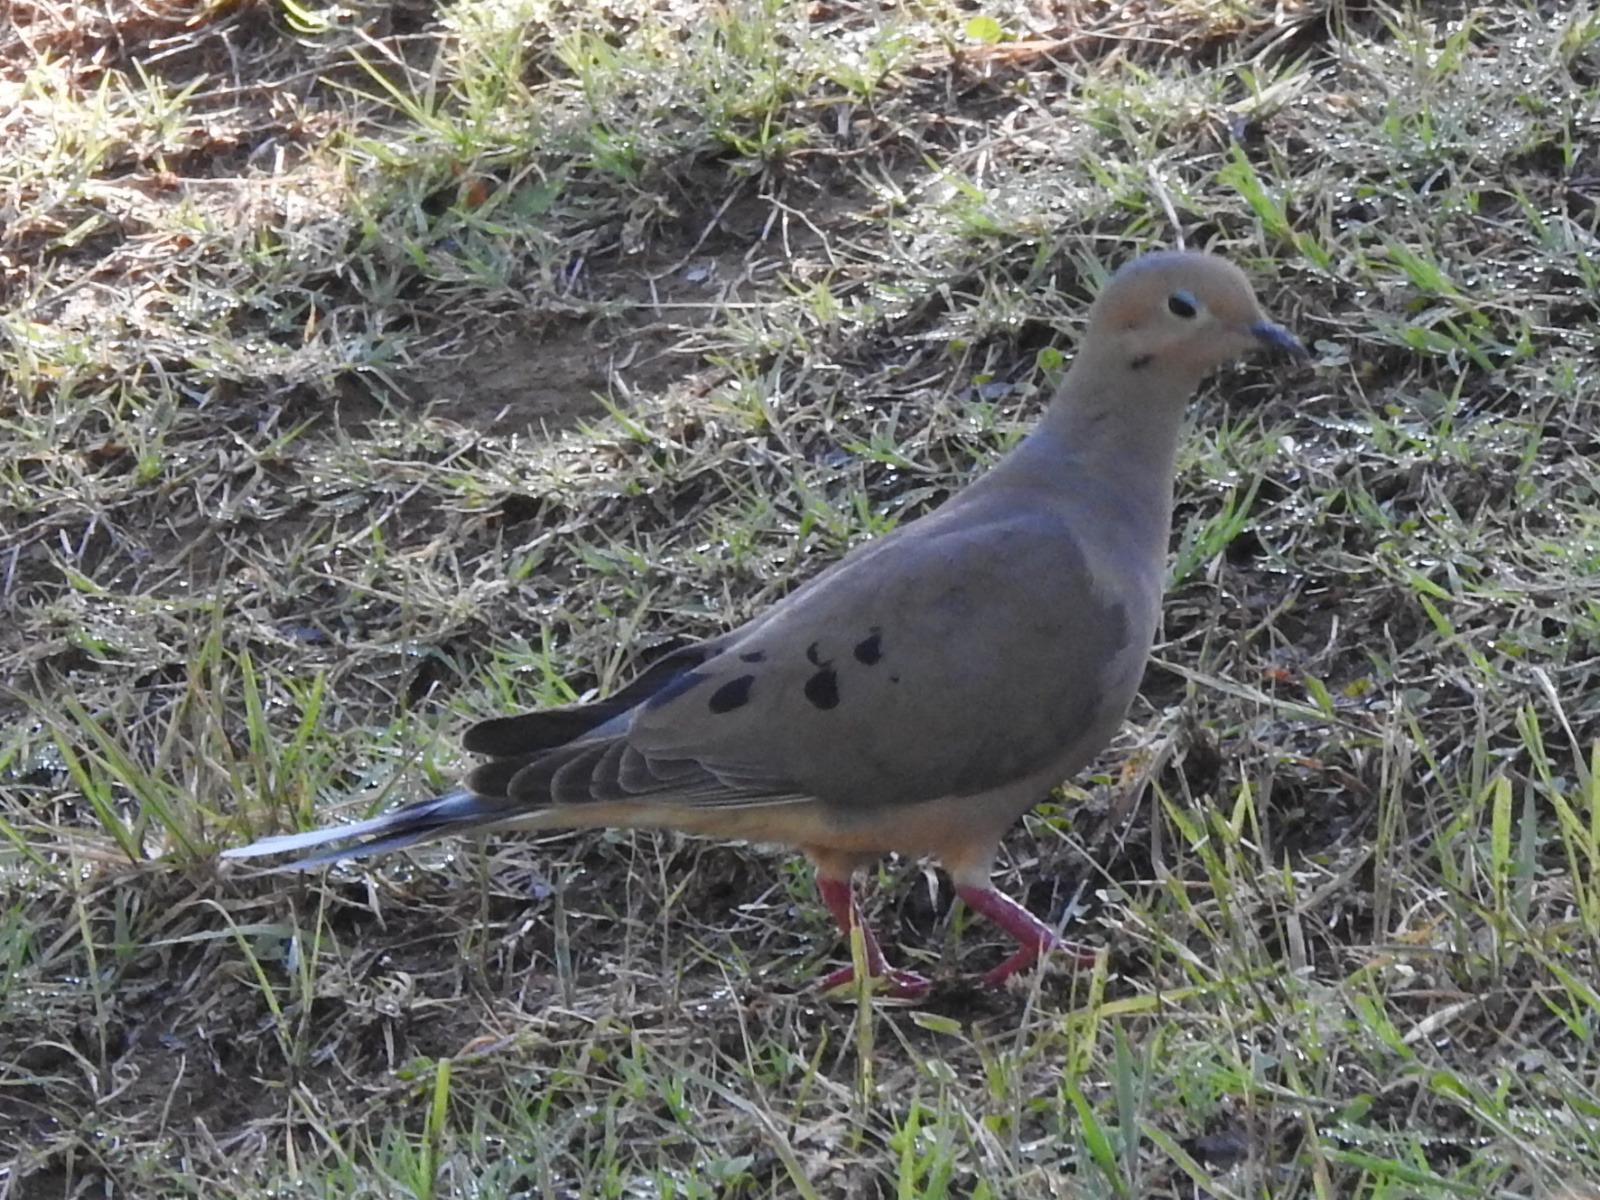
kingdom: Animalia
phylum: Chordata
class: Aves
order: Columbiformes
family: Columbidae
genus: Zenaida
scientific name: Zenaida macroura
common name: Mourning dove
